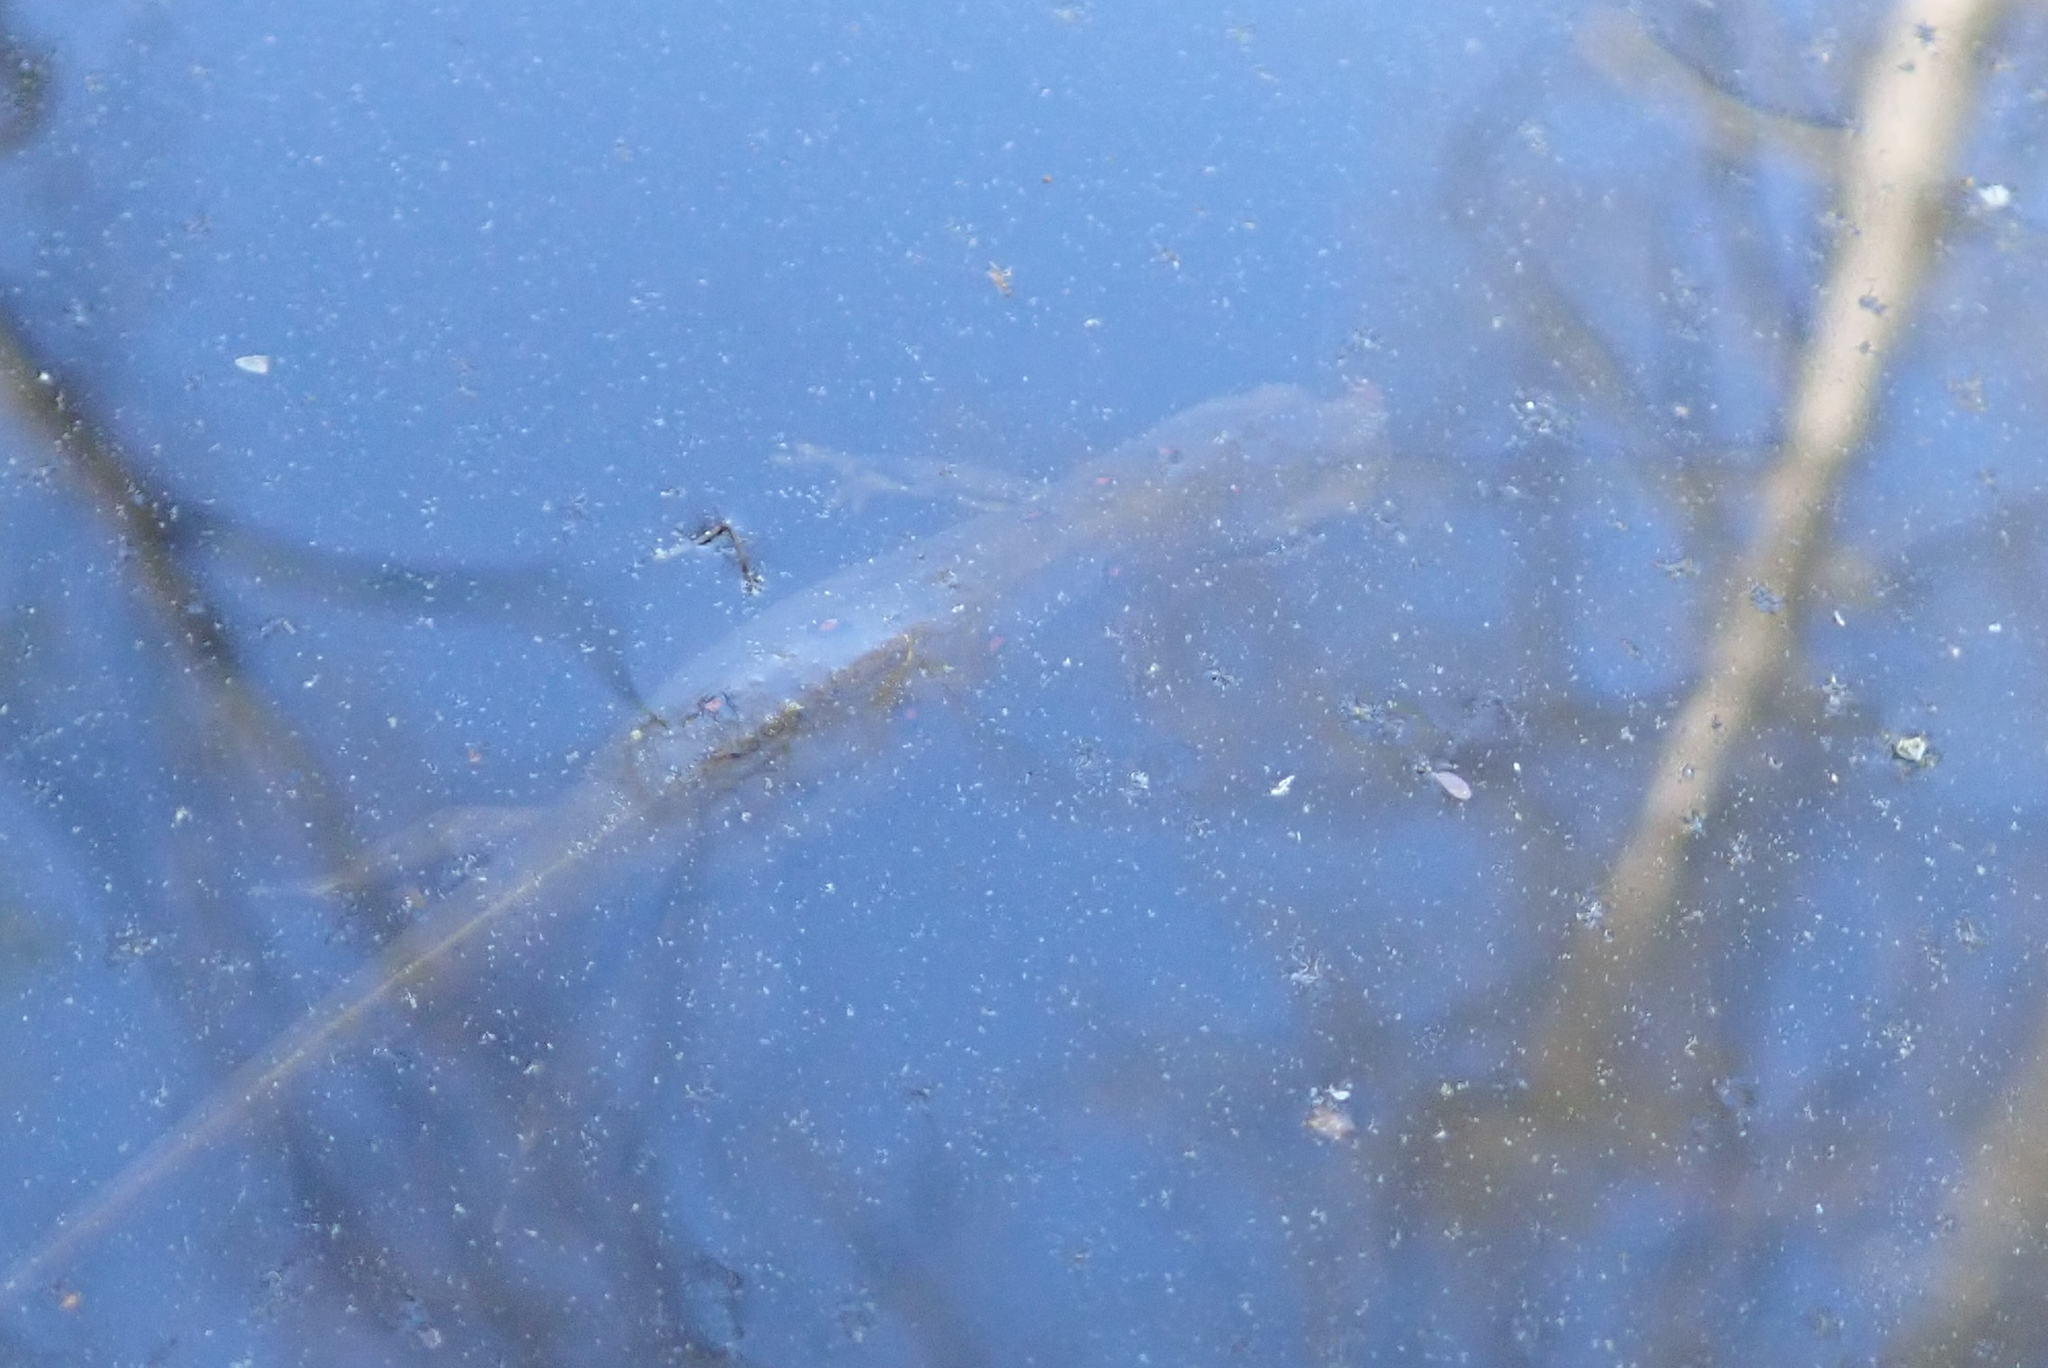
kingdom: Animalia
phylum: Chordata
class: Amphibia
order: Caudata
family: Salamandridae
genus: Notophthalmus
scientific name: Notophthalmus viridescens
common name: Eastern newt
